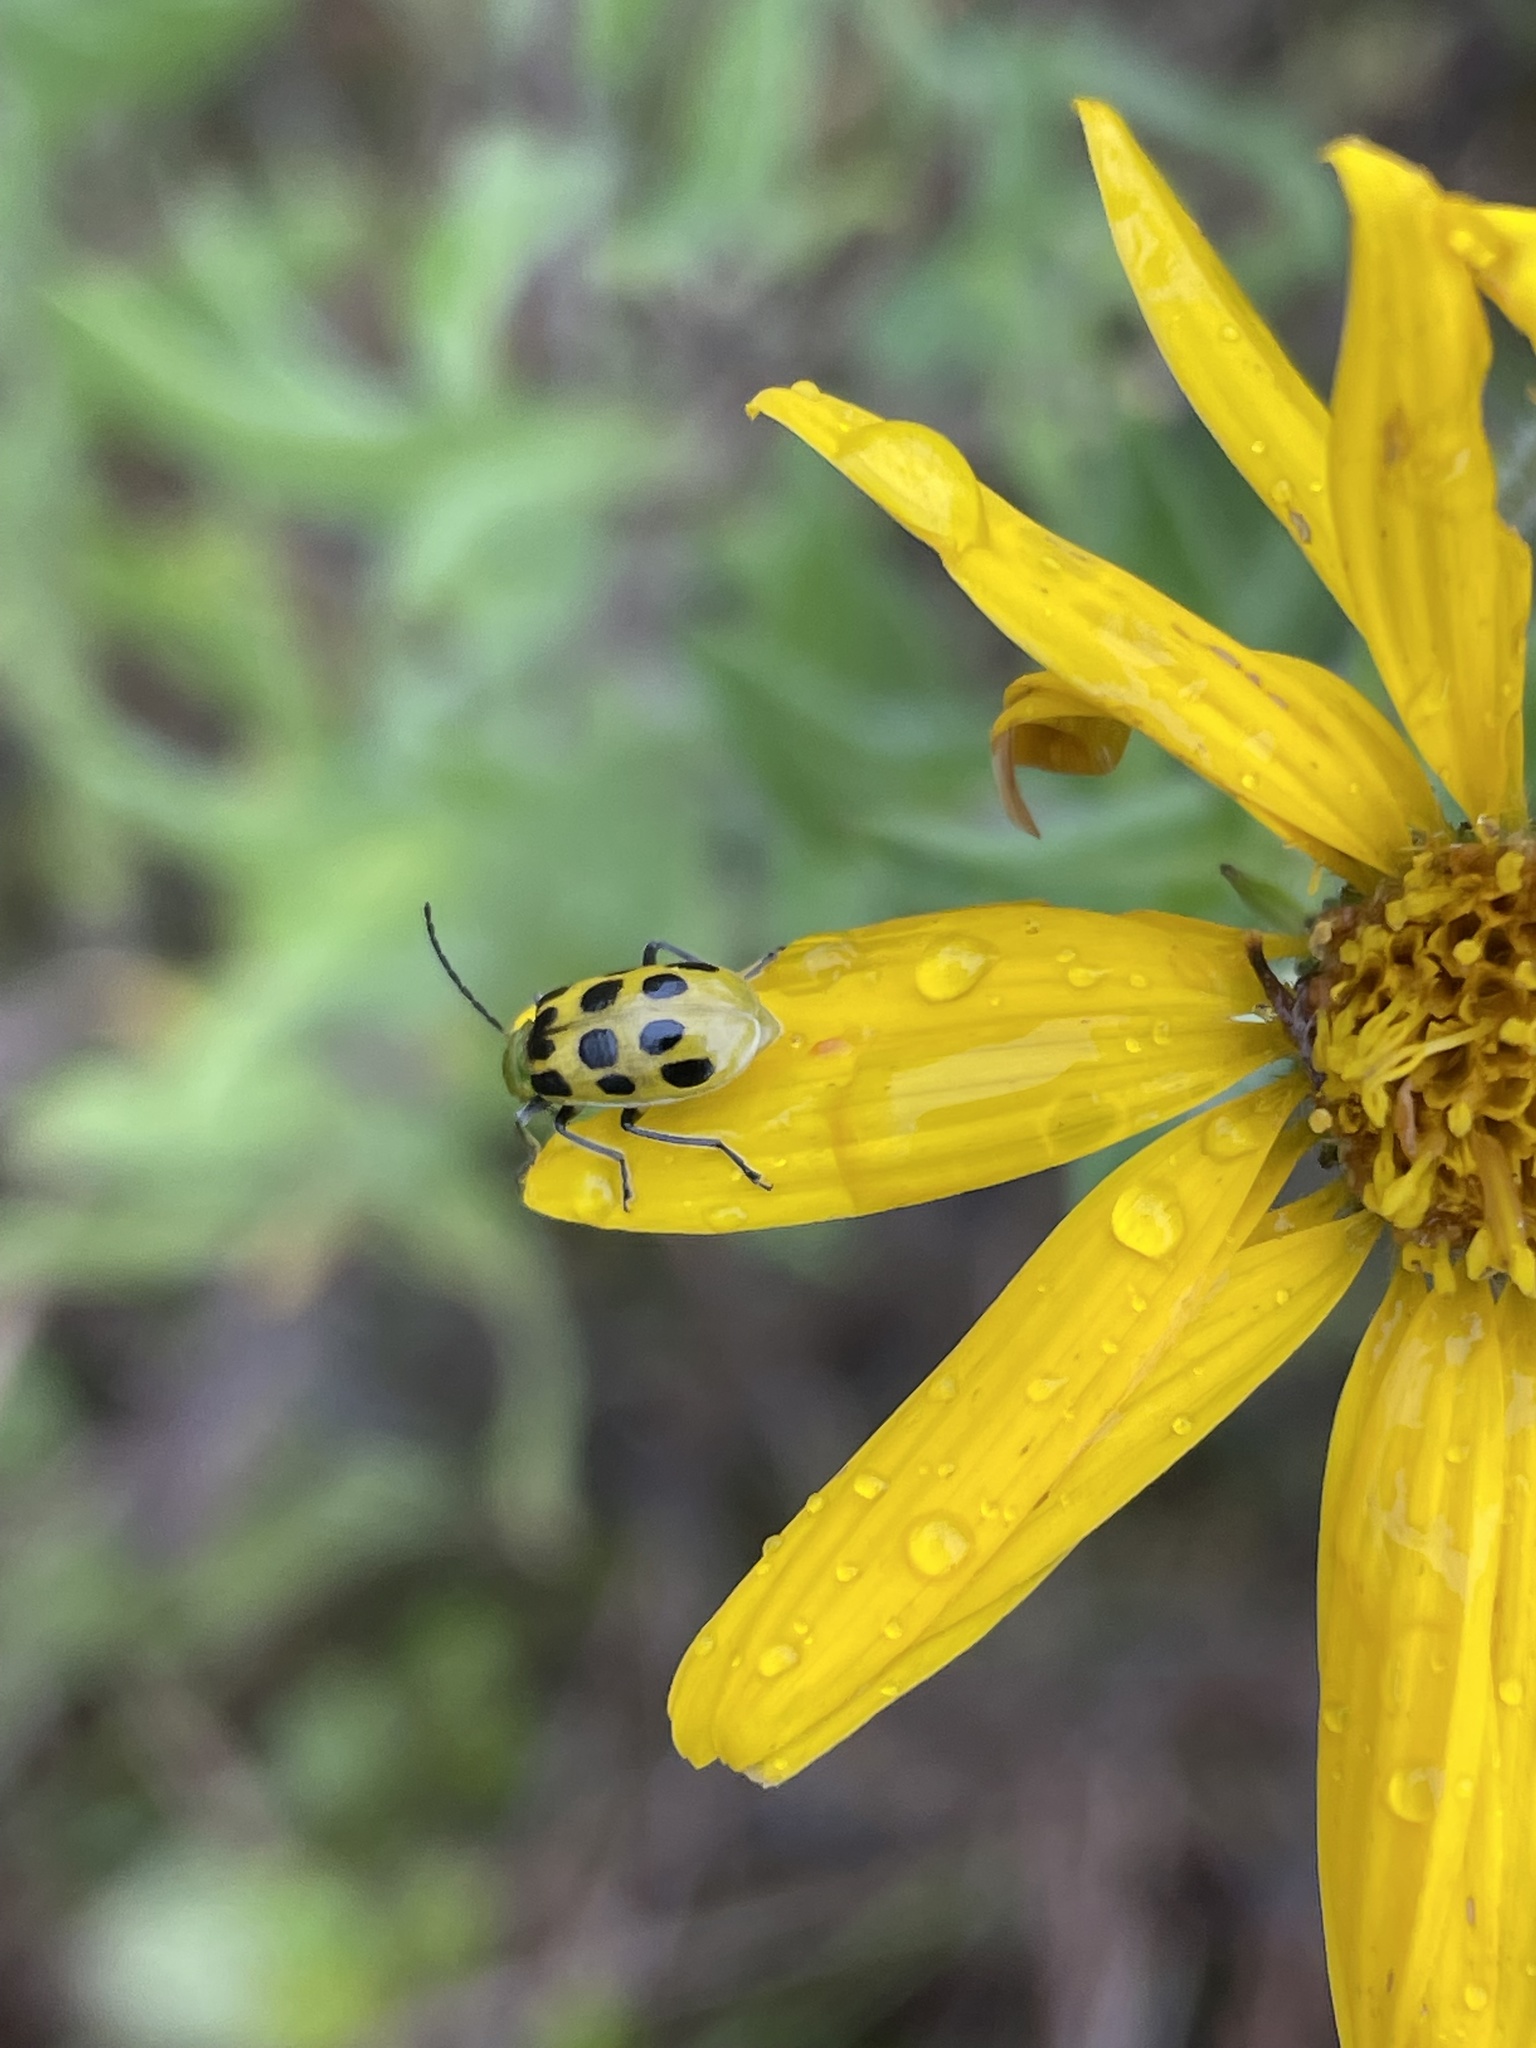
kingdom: Animalia
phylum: Arthropoda
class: Insecta
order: Coleoptera
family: Chrysomelidae
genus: Diabrotica
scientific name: Diabrotica undecimpunctata
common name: Spotted cucumber beetle
